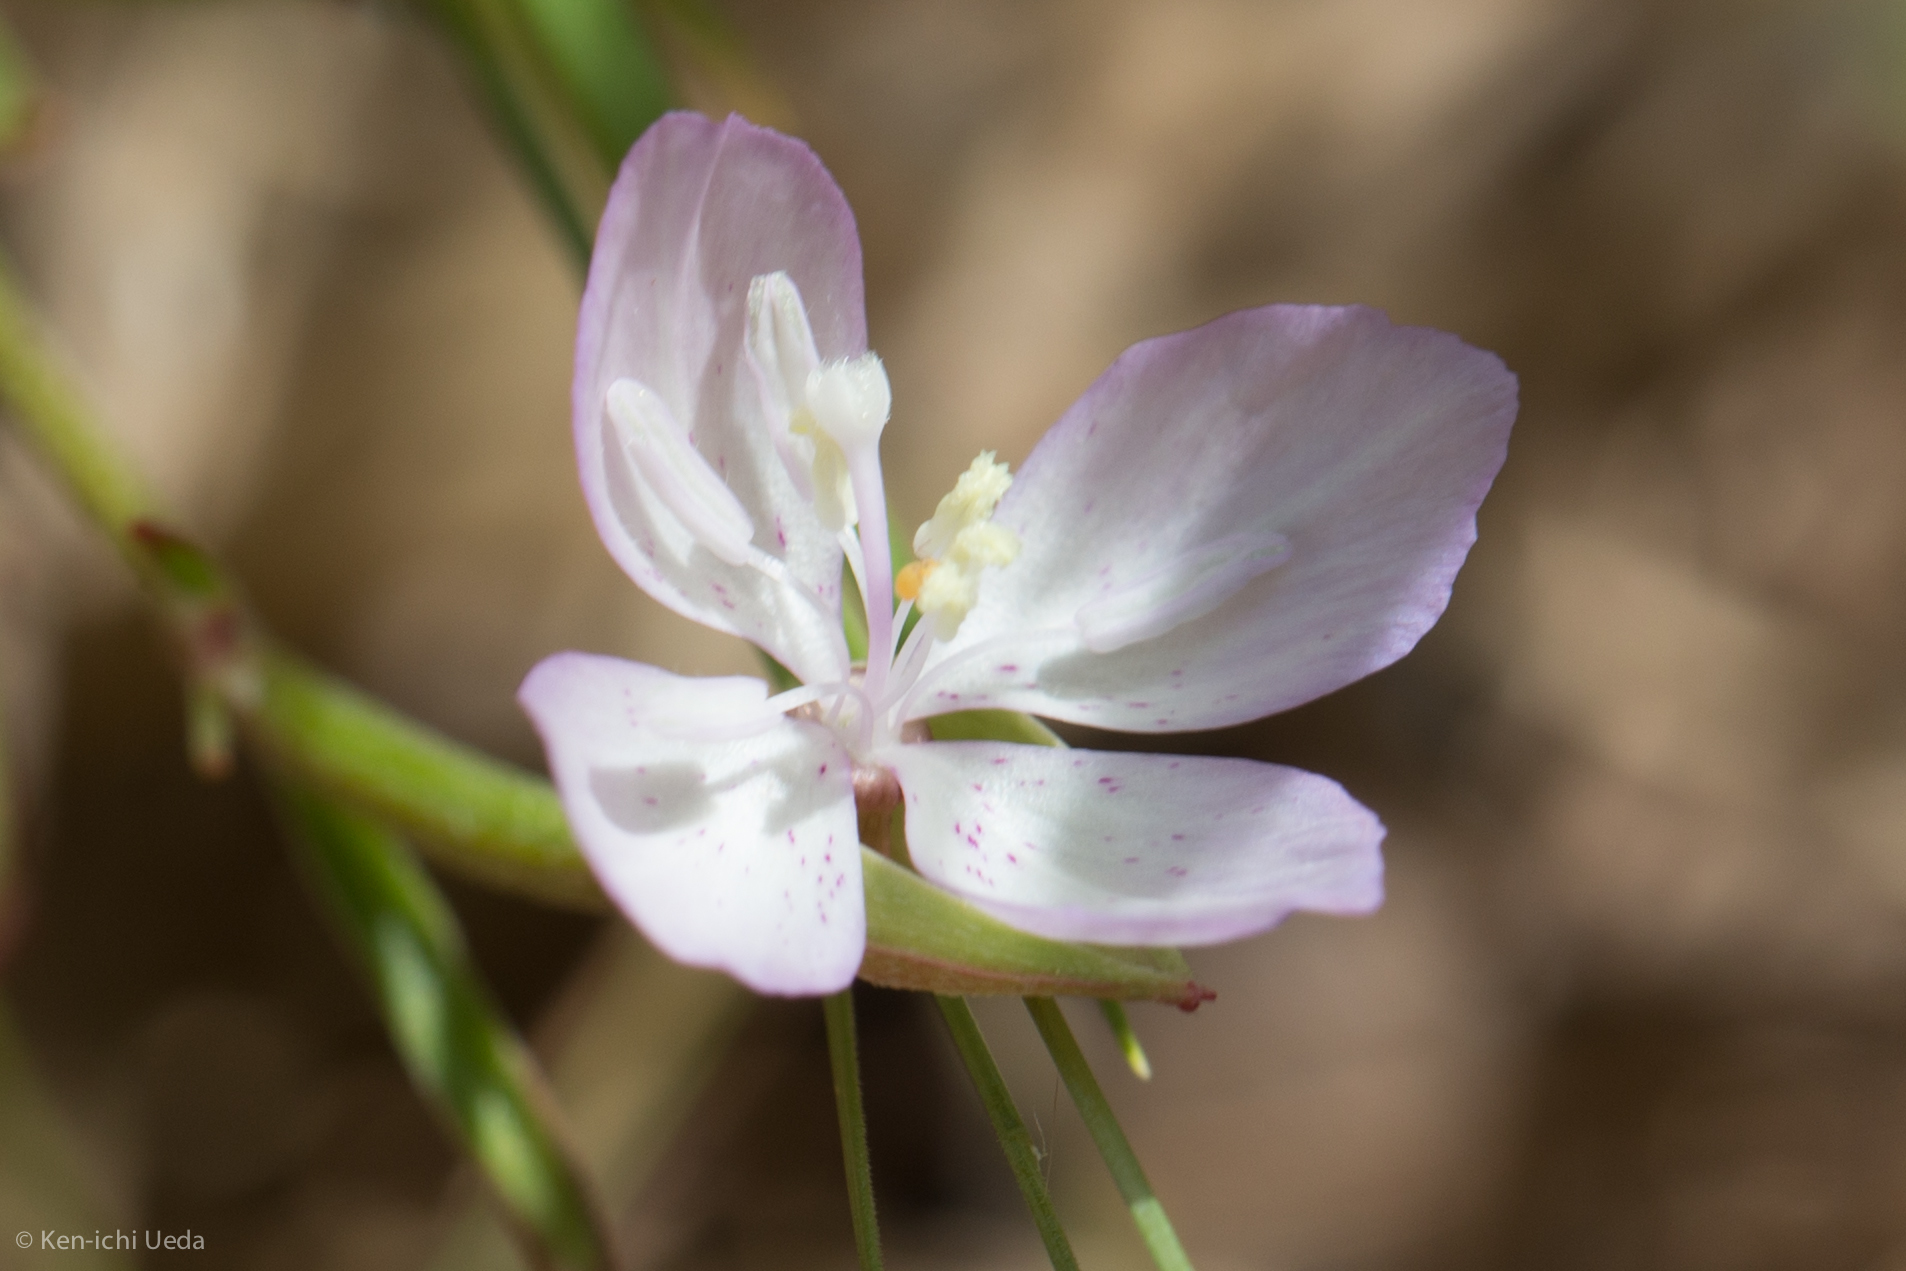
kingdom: Plantae
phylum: Tracheophyta
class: Magnoliopsida
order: Myrtales
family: Onagraceae
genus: Clarkia
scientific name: Clarkia similis
